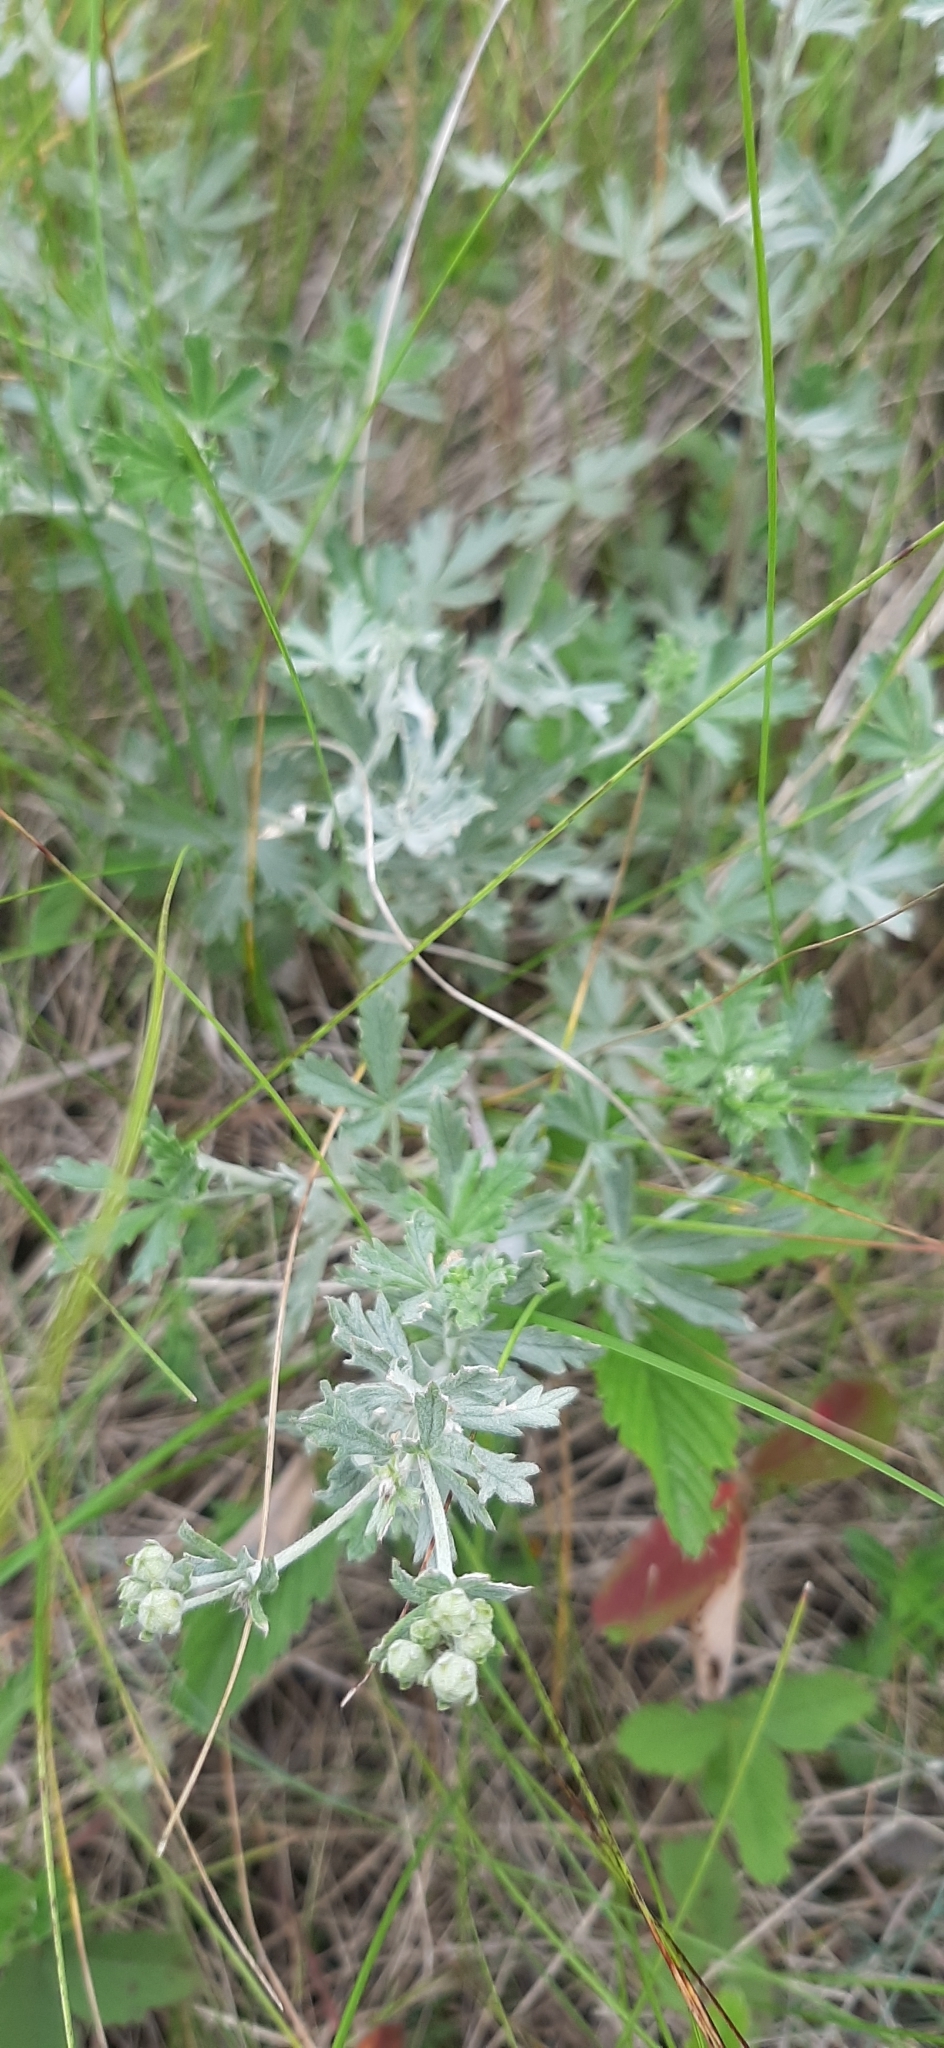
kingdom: Plantae
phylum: Tracheophyta
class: Magnoliopsida
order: Rosales
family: Rosaceae
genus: Potentilla
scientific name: Potentilla argentea
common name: Hoary cinquefoil
